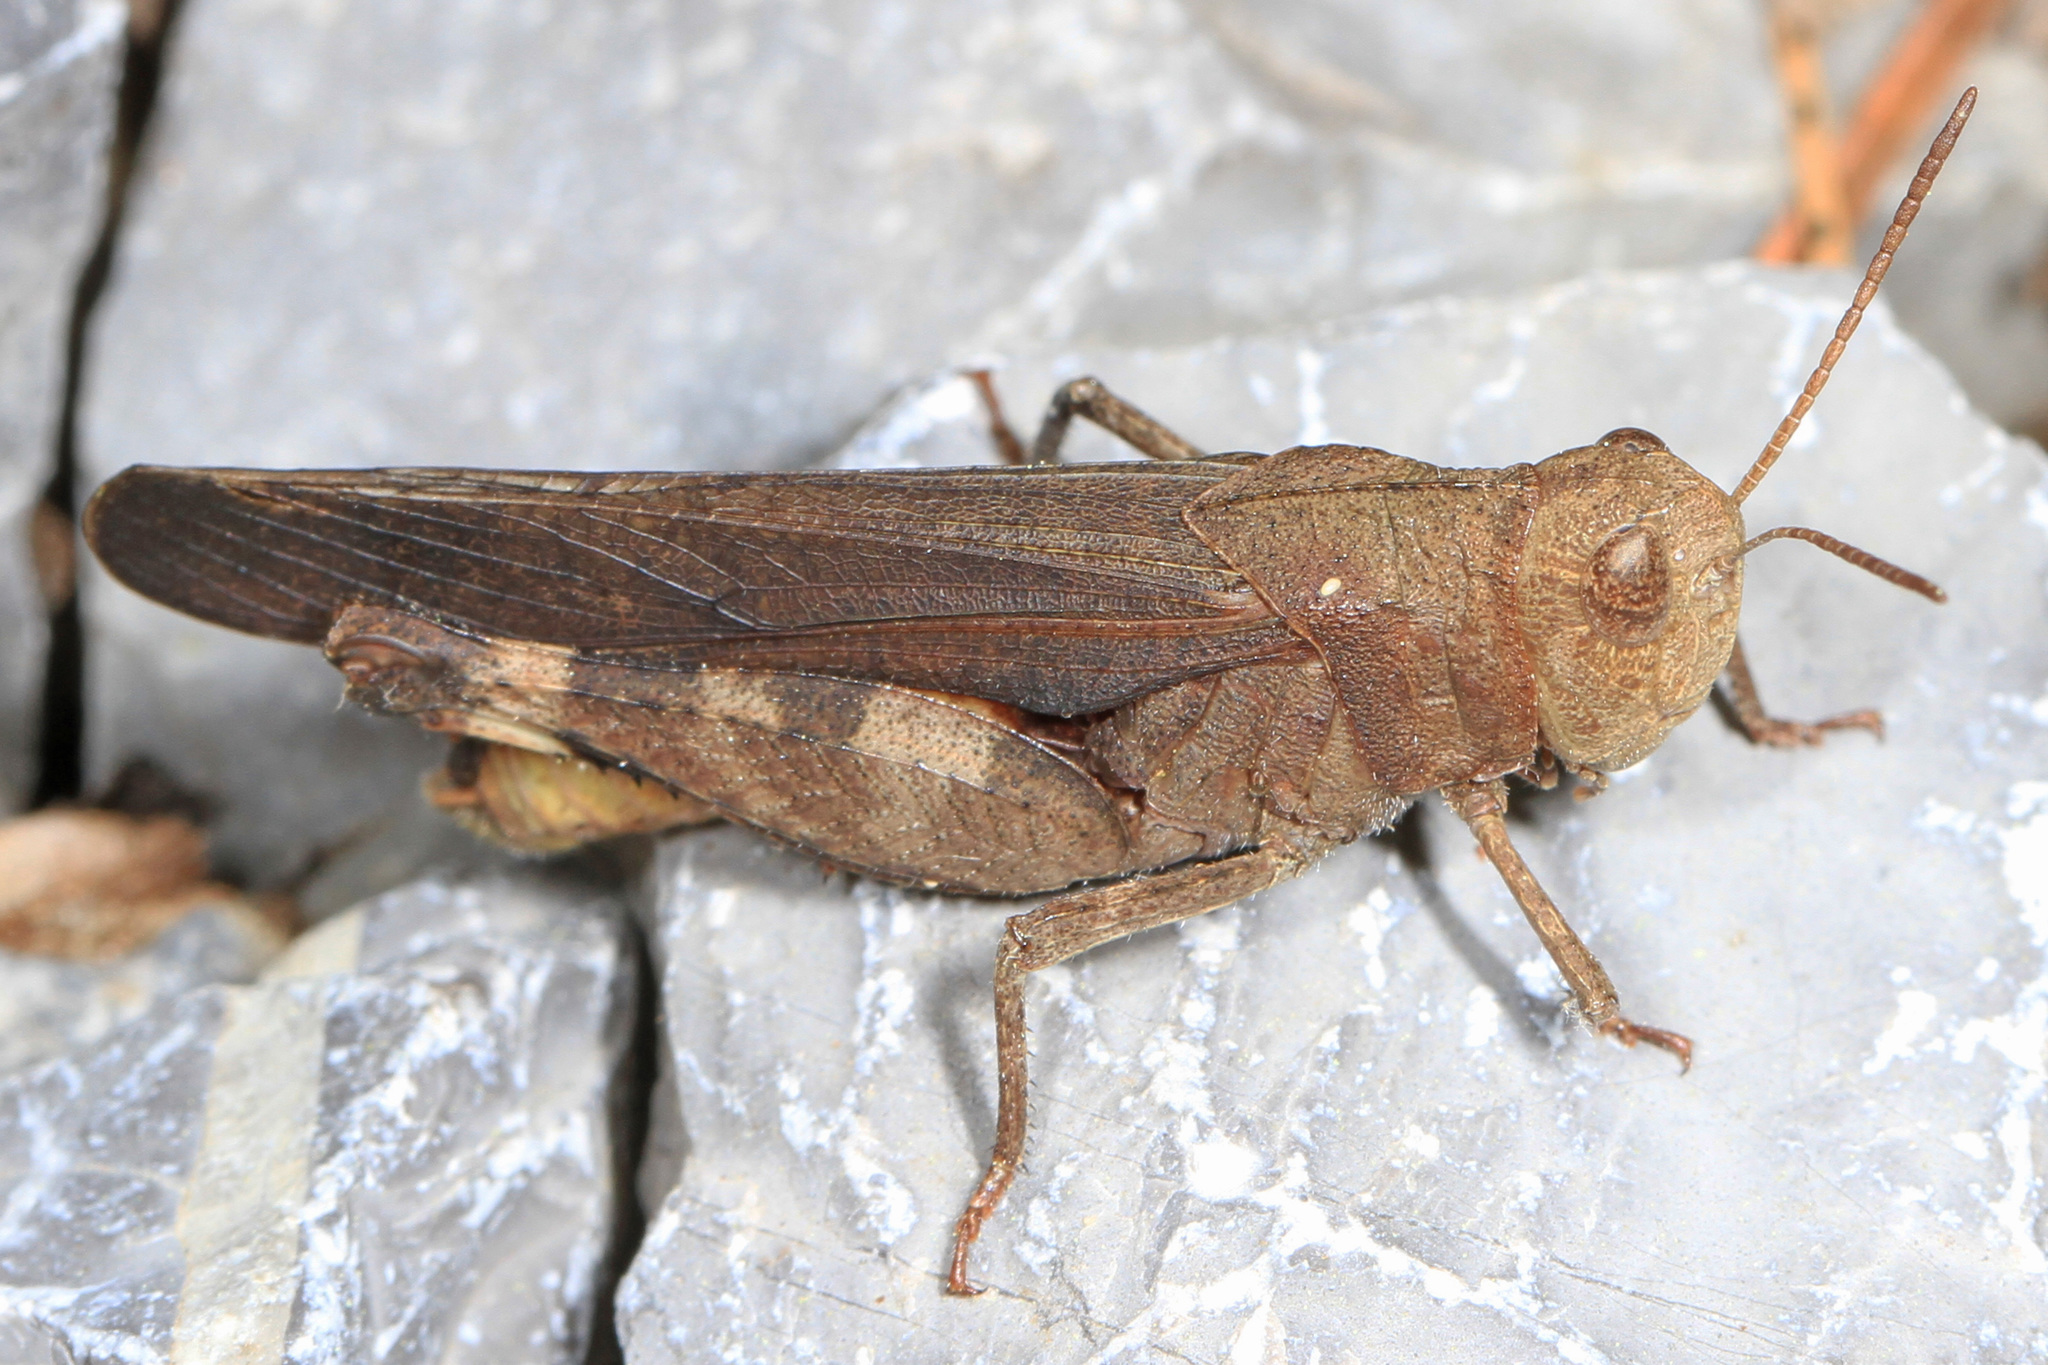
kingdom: Animalia
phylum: Arthropoda
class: Insecta
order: Orthoptera
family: Acrididae
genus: Arphia
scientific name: Arphia sulphurea
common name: Spring yellow-winged locust
